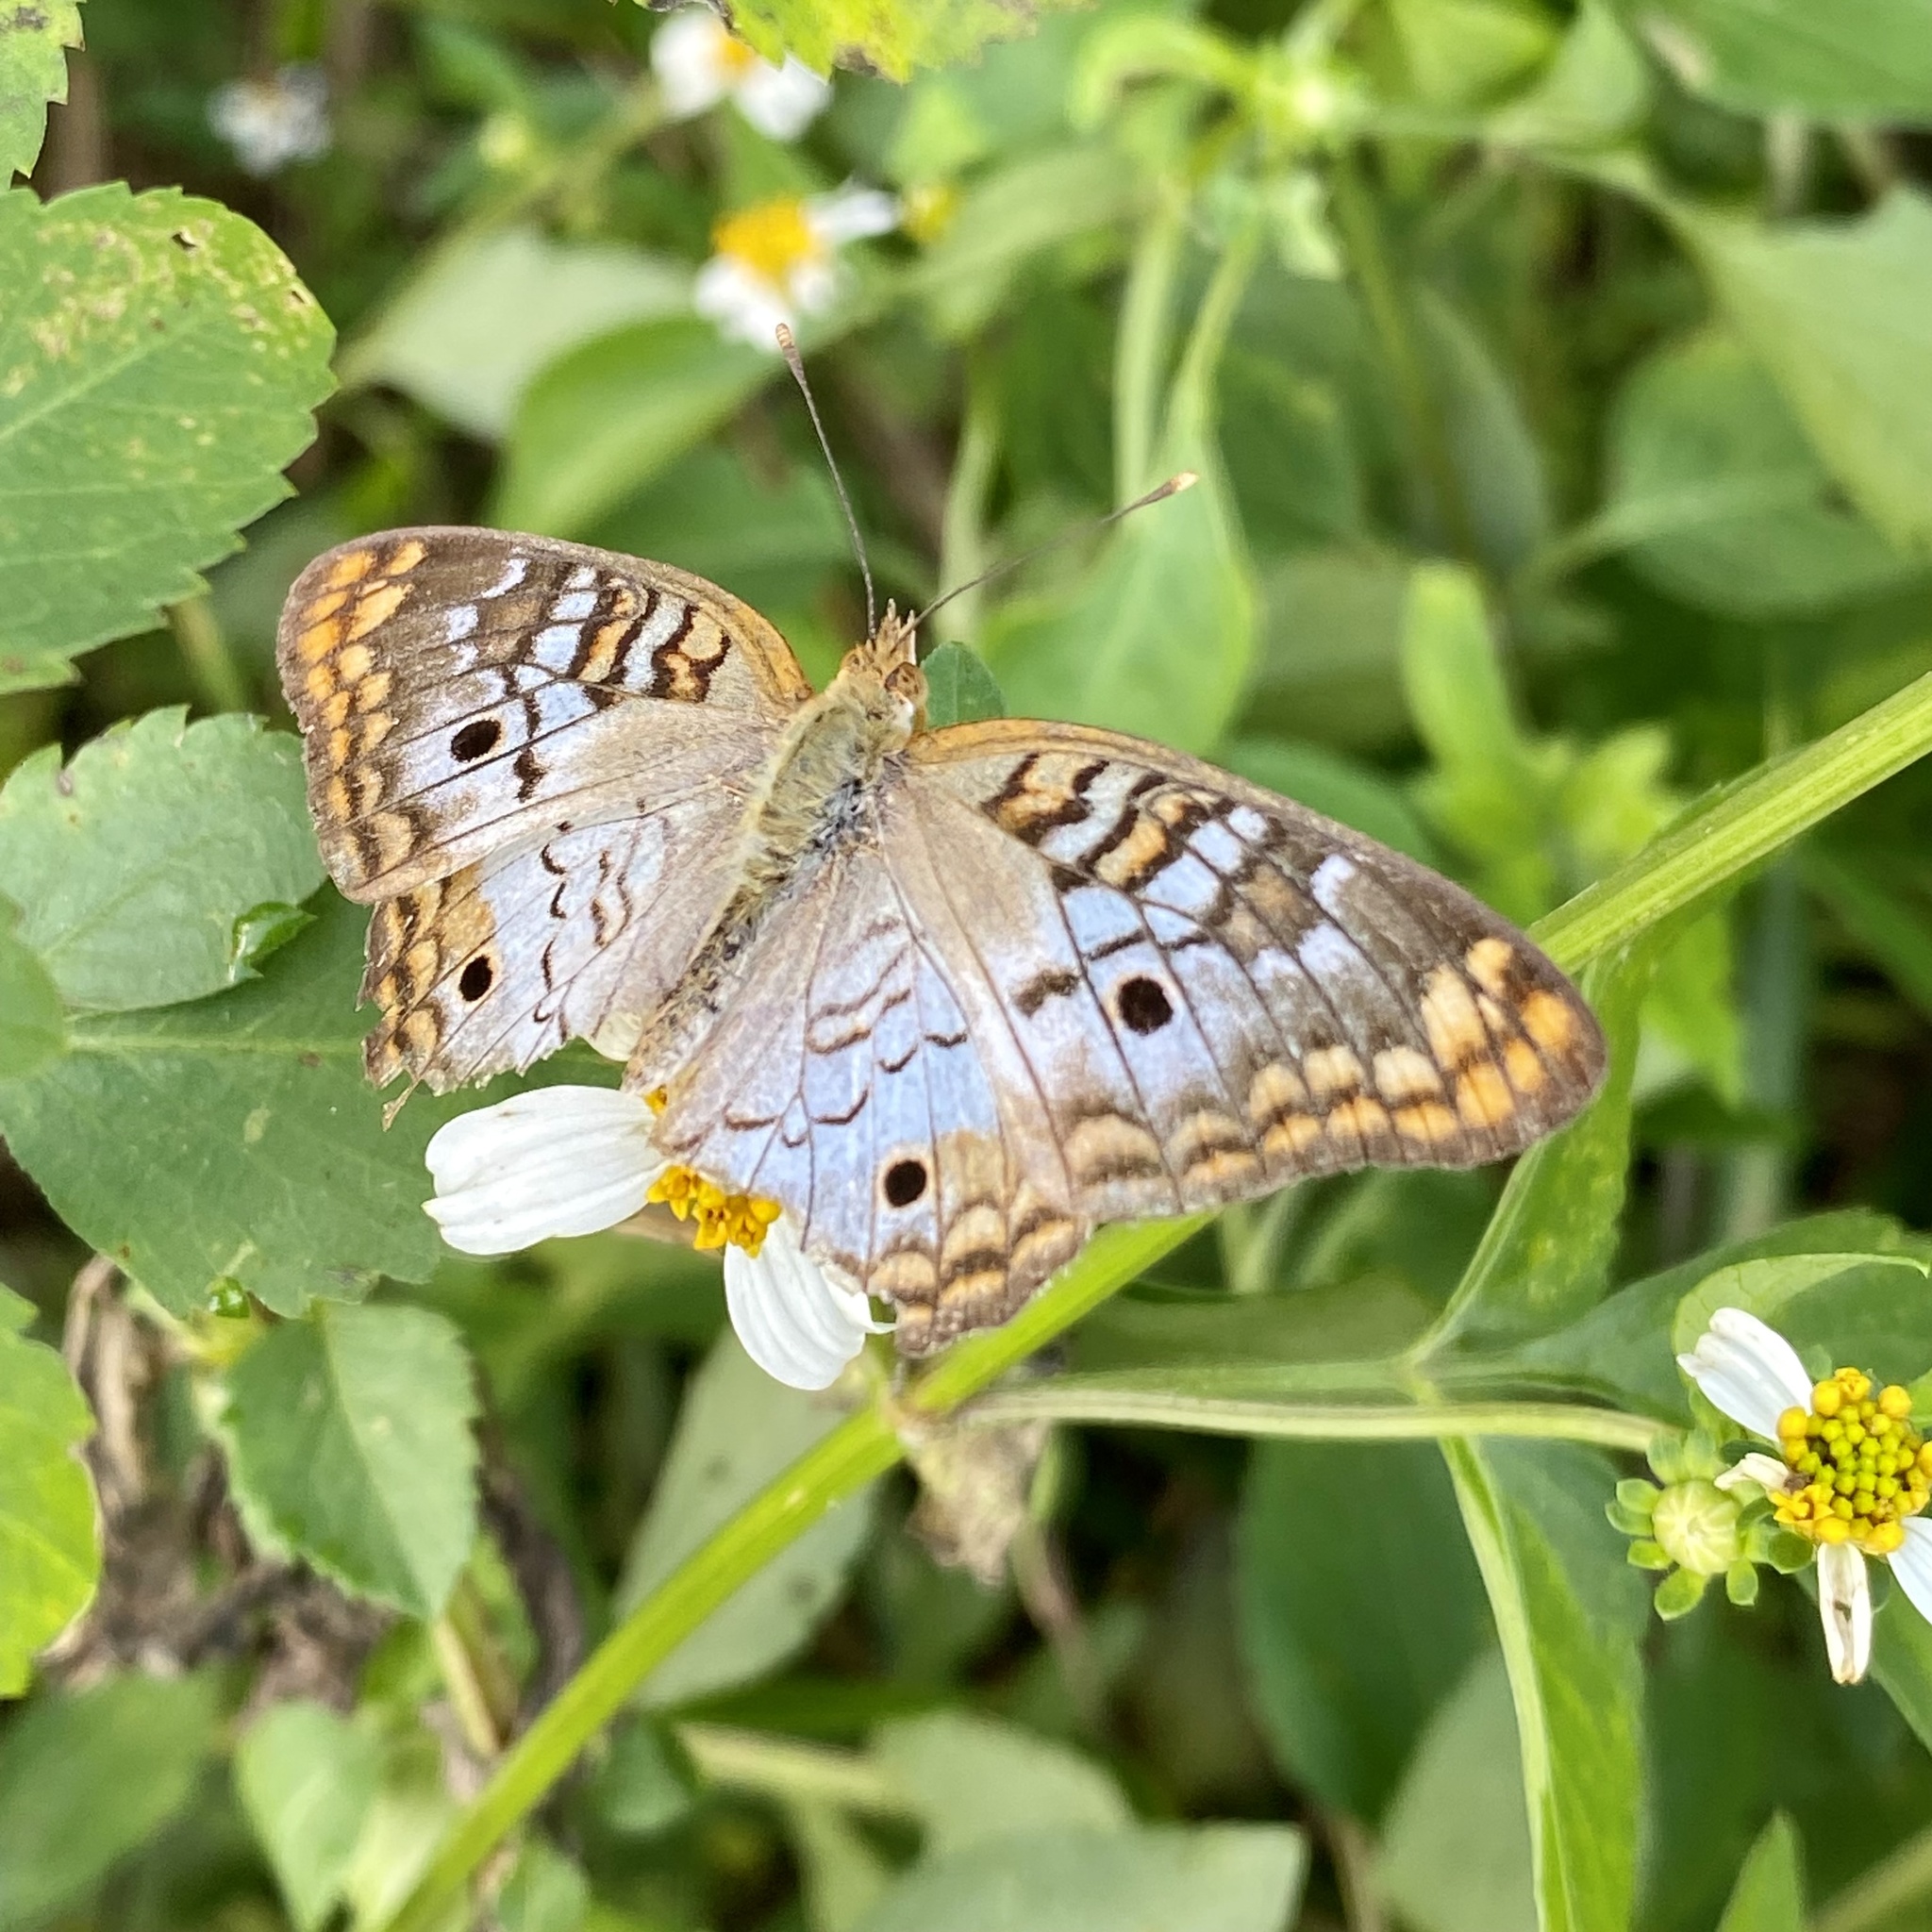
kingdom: Animalia
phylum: Arthropoda
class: Insecta
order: Lepidoptera
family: Nymphalidae
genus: Anartia
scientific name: Anartia jatrophae
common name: White peacock
